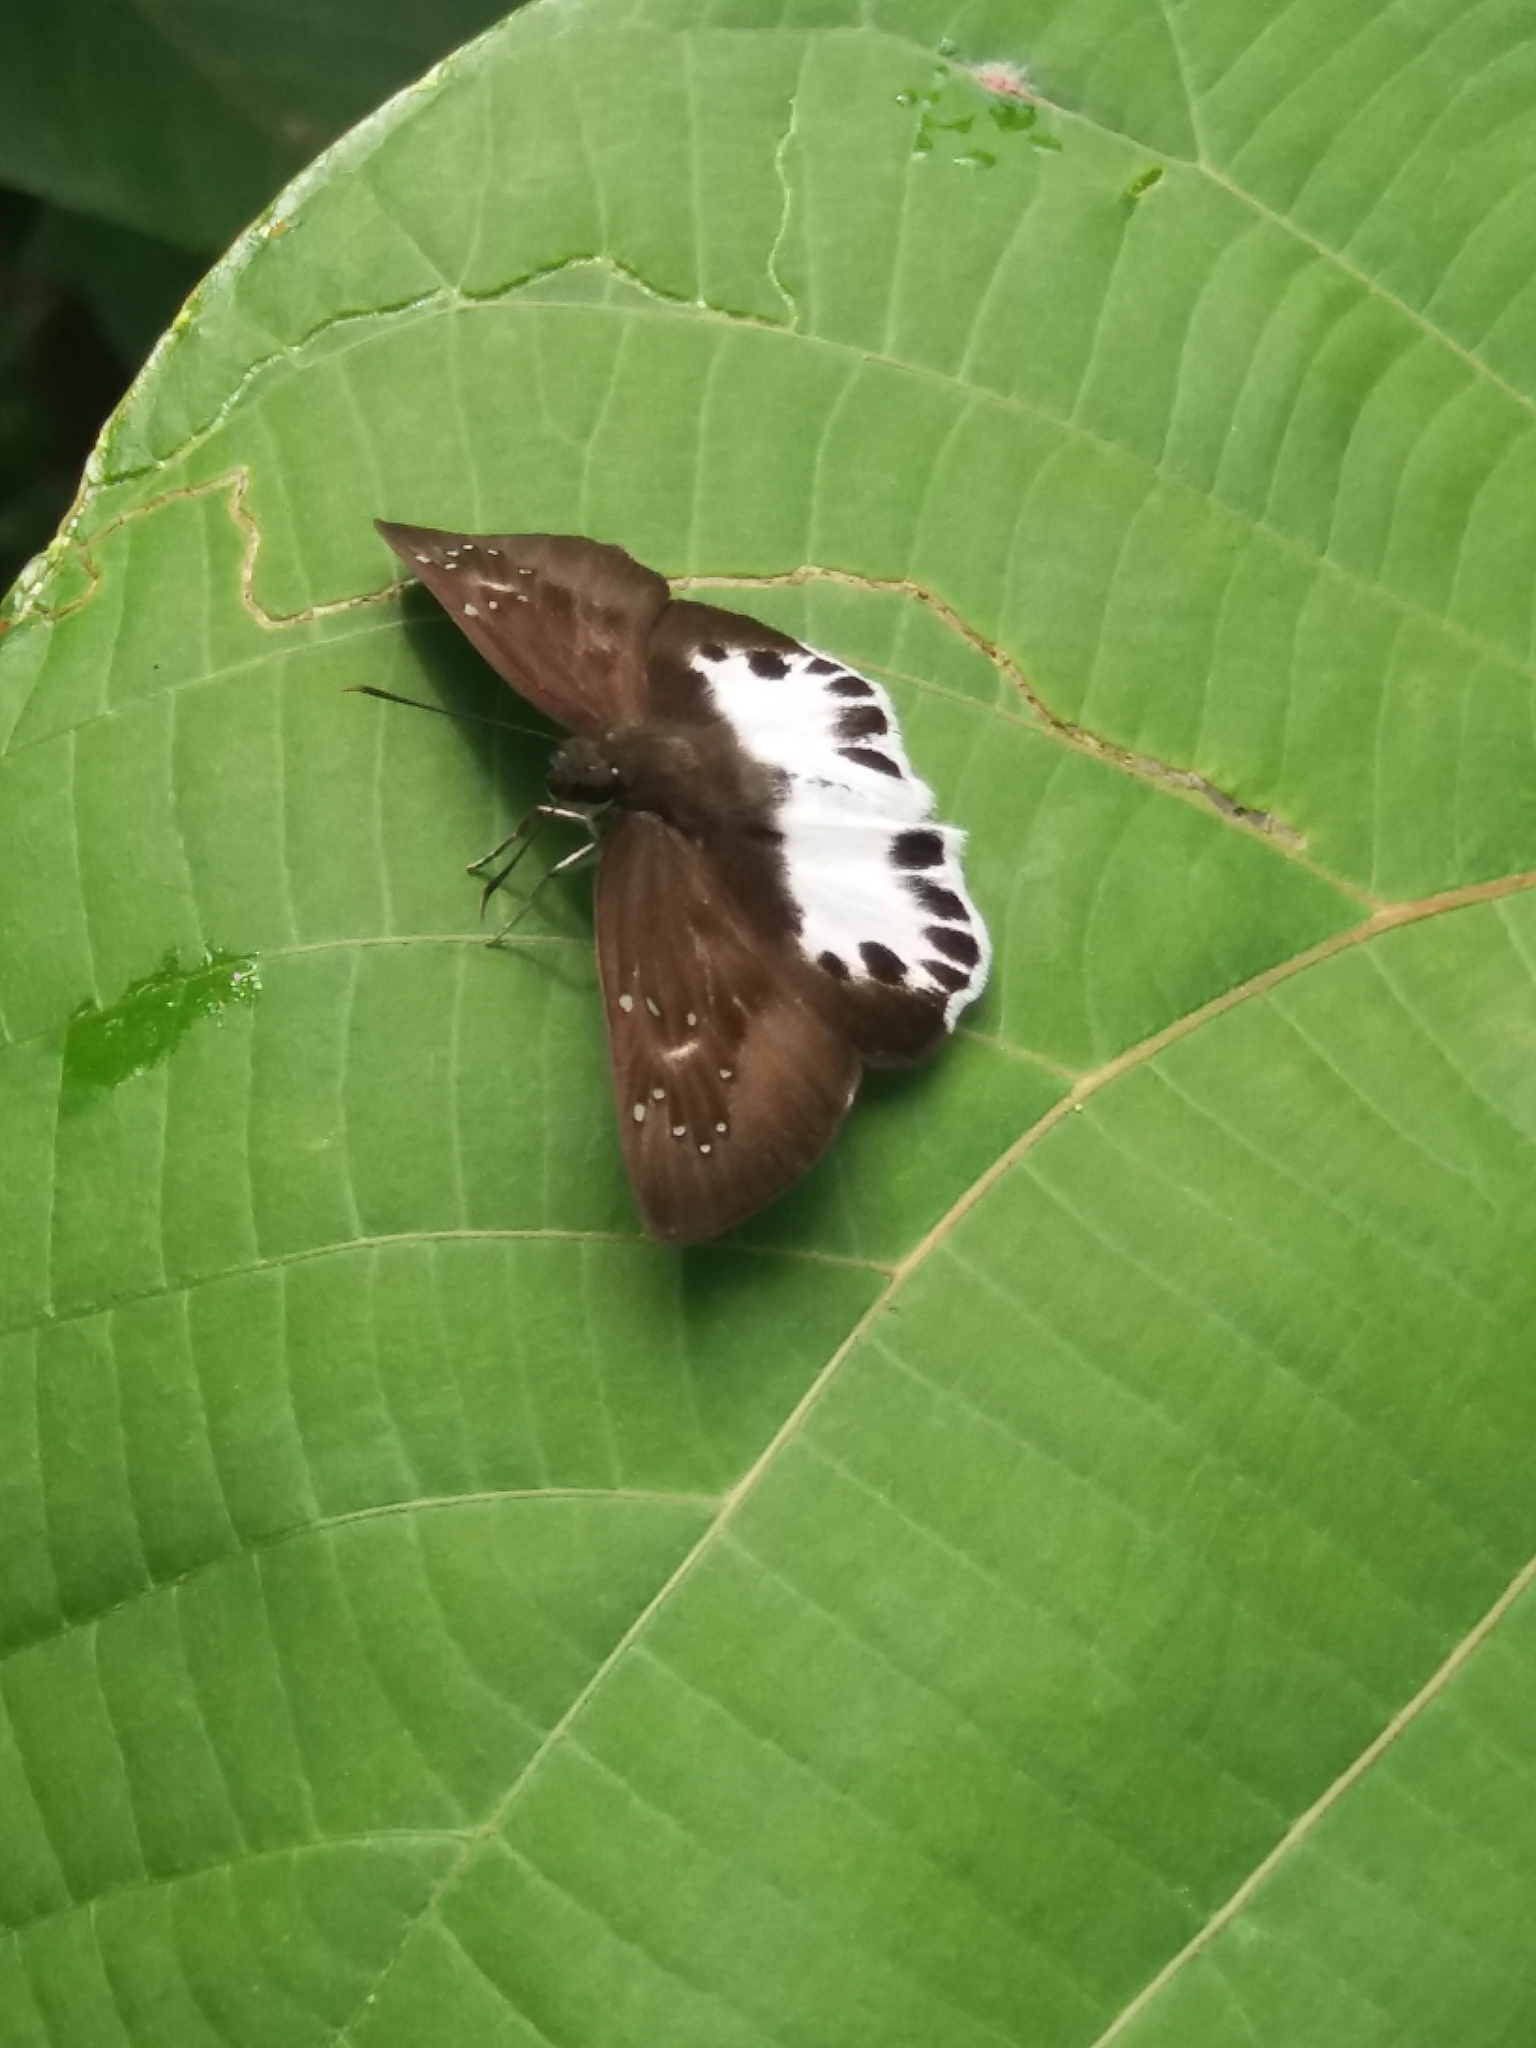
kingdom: Animalia
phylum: Arthropoda
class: Insecta
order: Lepidoptera
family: Hesperiidae
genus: Tagiades
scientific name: Tagiades litigiosa
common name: Water snow flat
